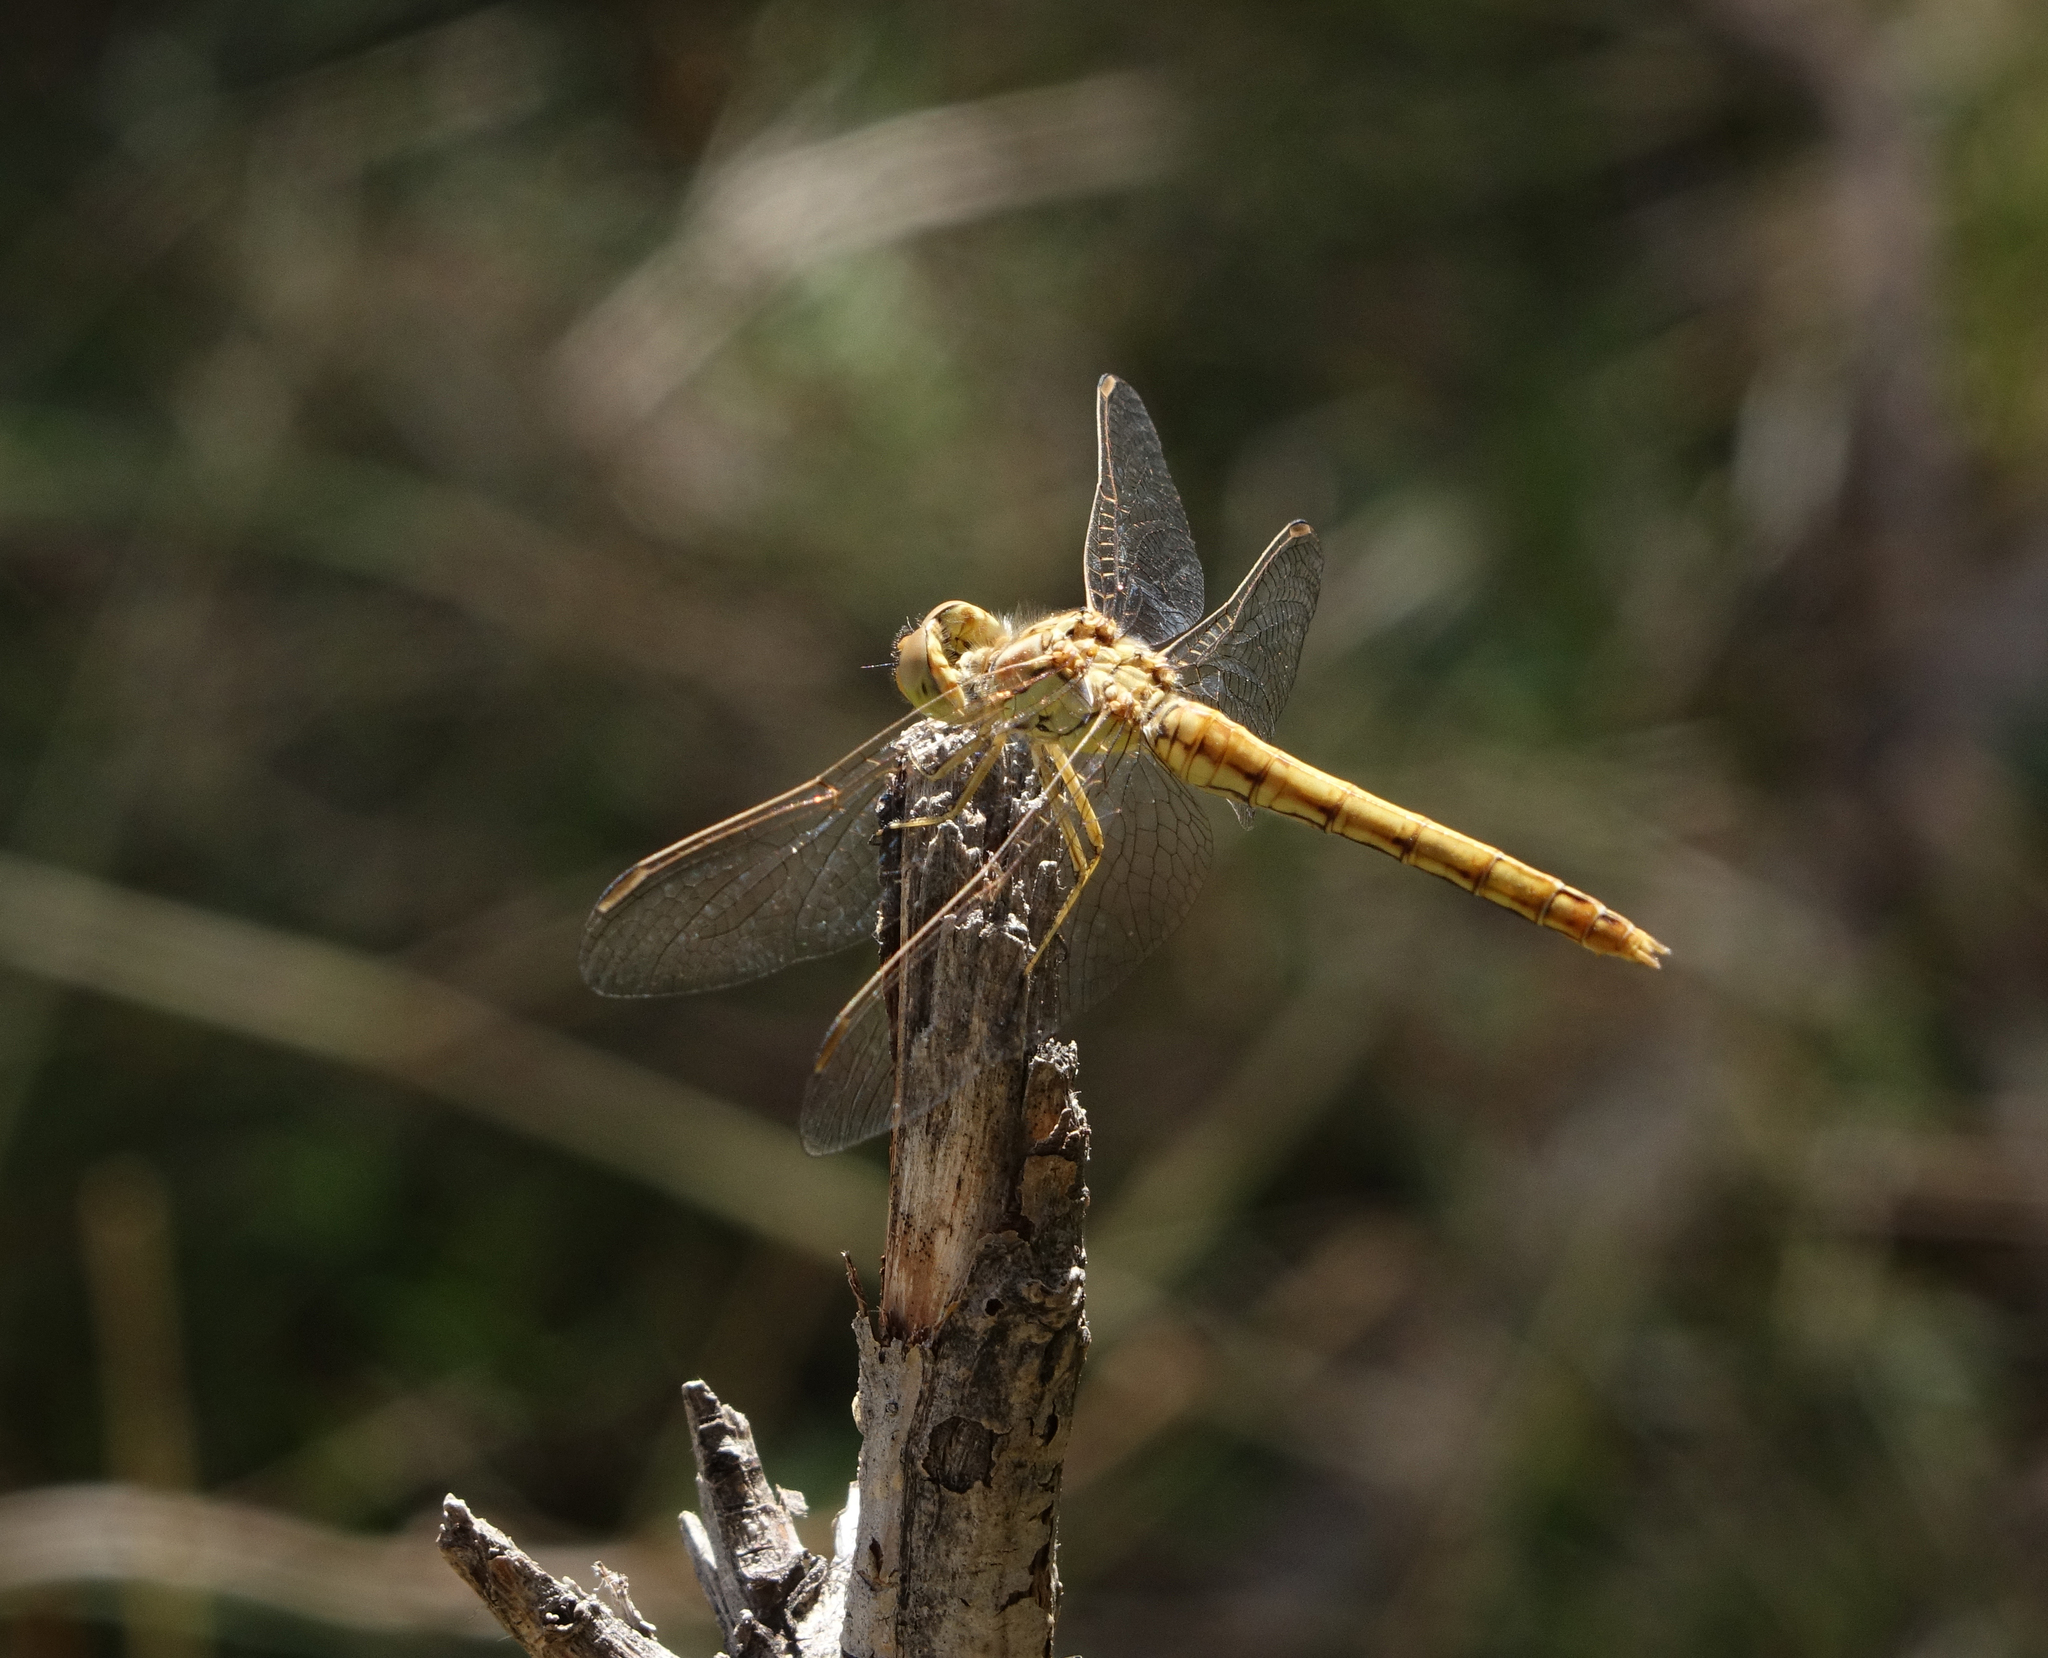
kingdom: Animalia
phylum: Arthropoda
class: Insecta
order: Odonata
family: Libellulidae
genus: Sympetrum
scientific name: Sympetrum vulgatum
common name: Vagrant darter
